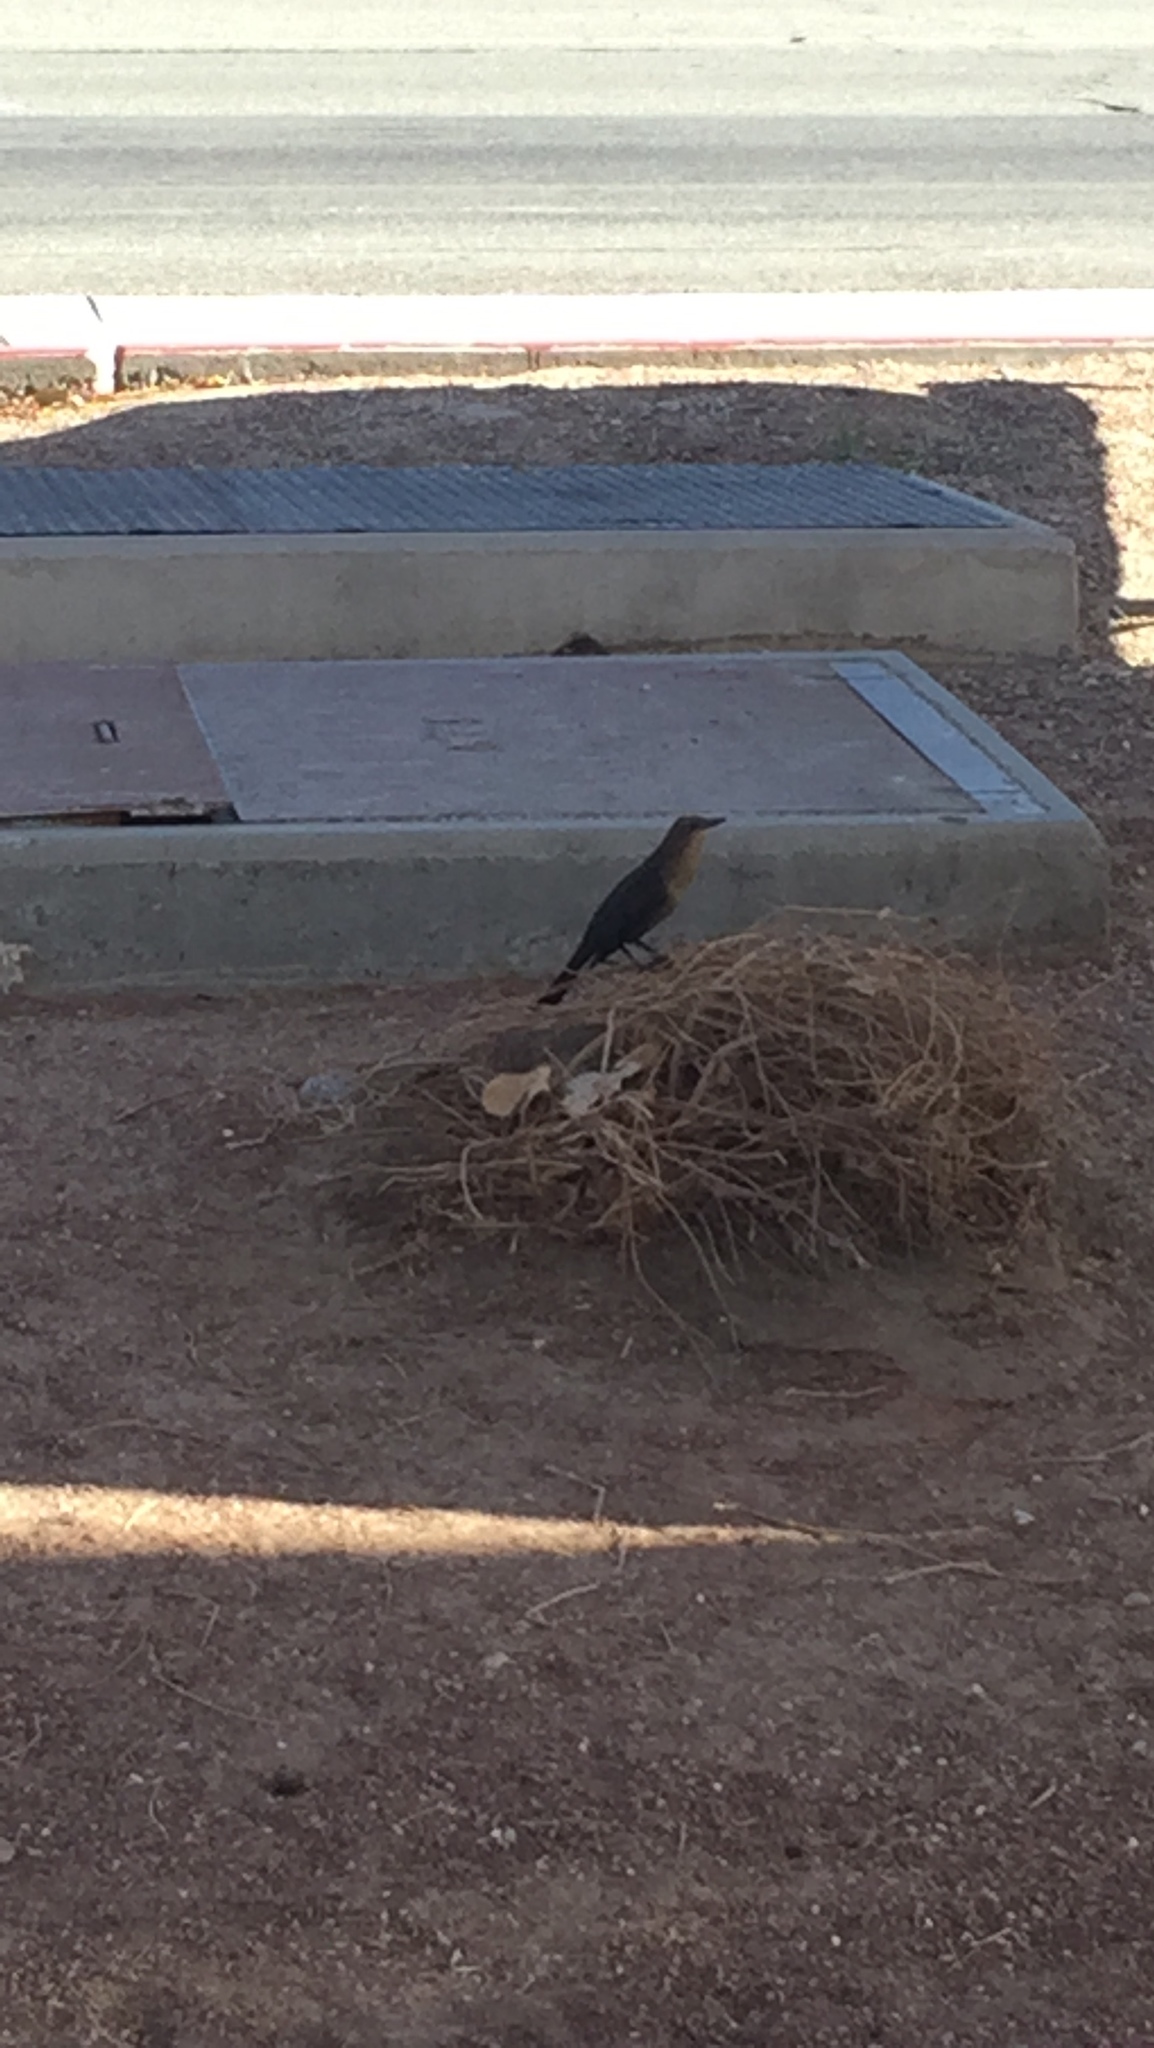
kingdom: Animalia
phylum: Chordata
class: Aves
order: Passeriformes
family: Icteridae
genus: Quiscalus
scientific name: Quiscalus mexicanus
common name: Great-tailed grackle
